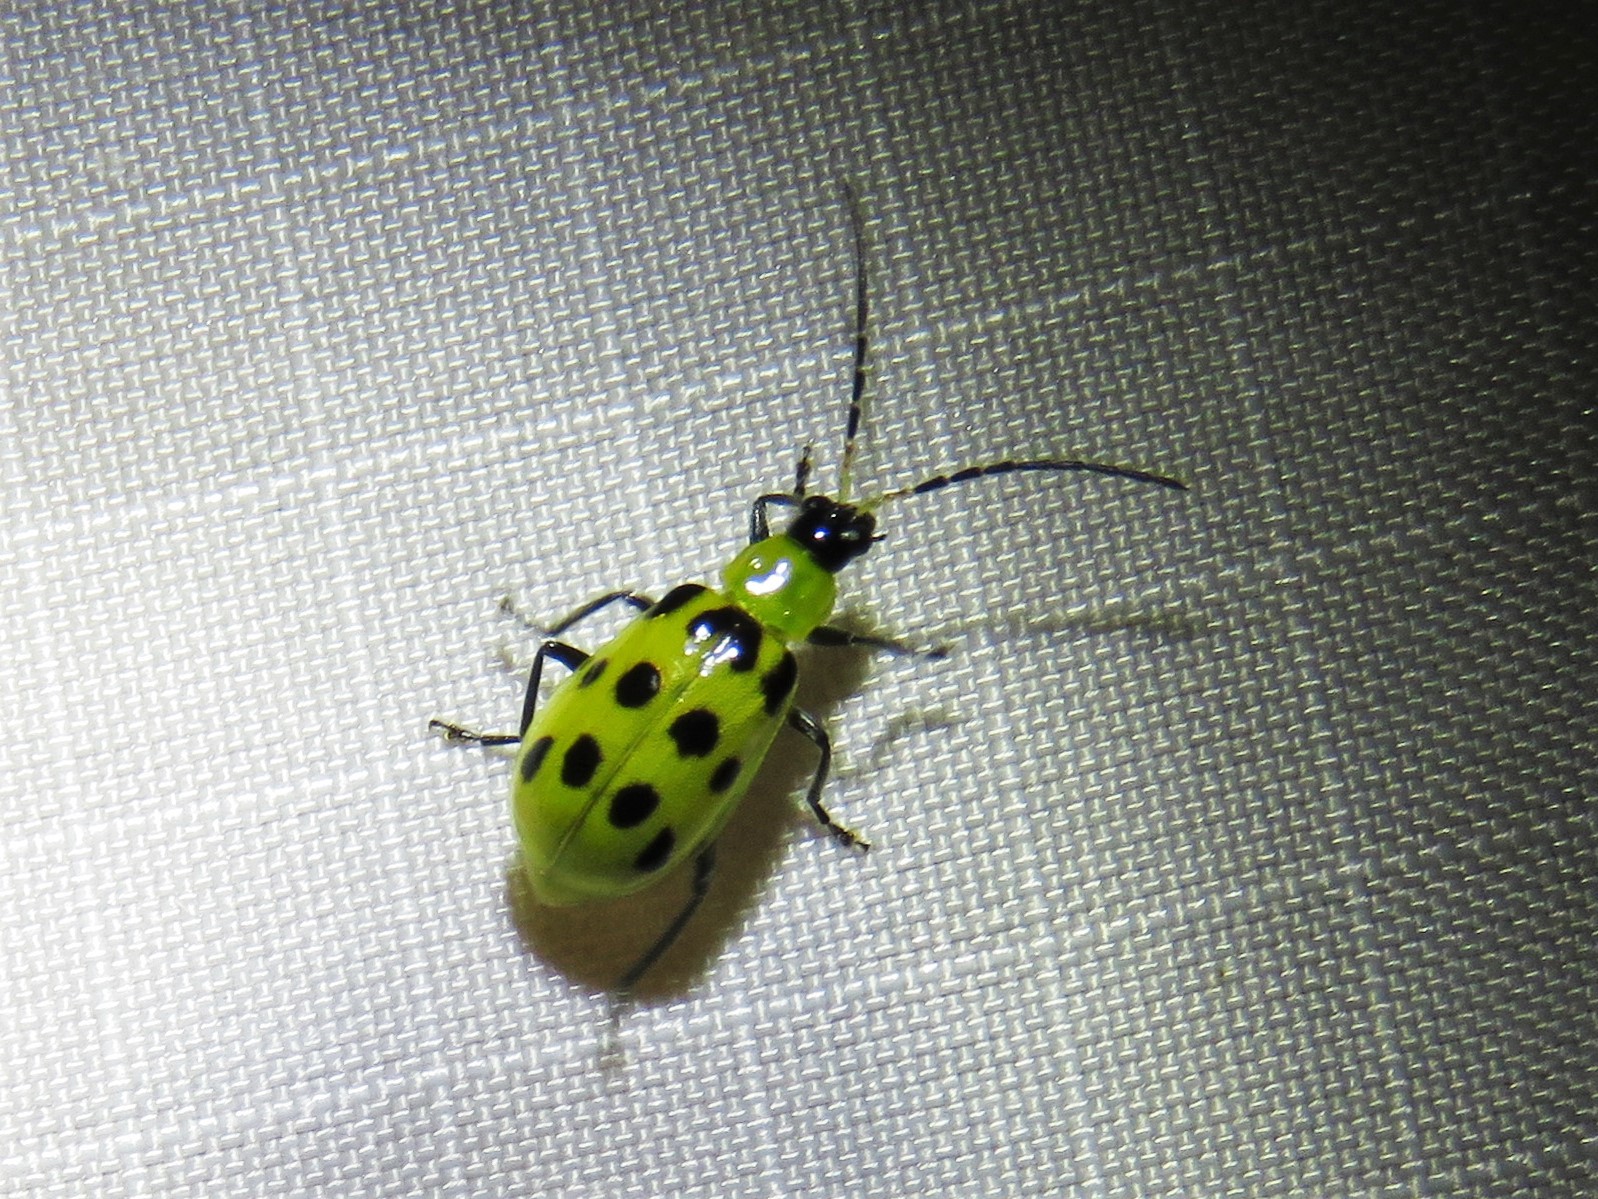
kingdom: Animalia
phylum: Arthropoda
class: Insecta
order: Coleoptera
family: Chrysomelidae
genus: Diabrotica
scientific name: Diabrotica undecimpunctata
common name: Spotted cucumber beetle
